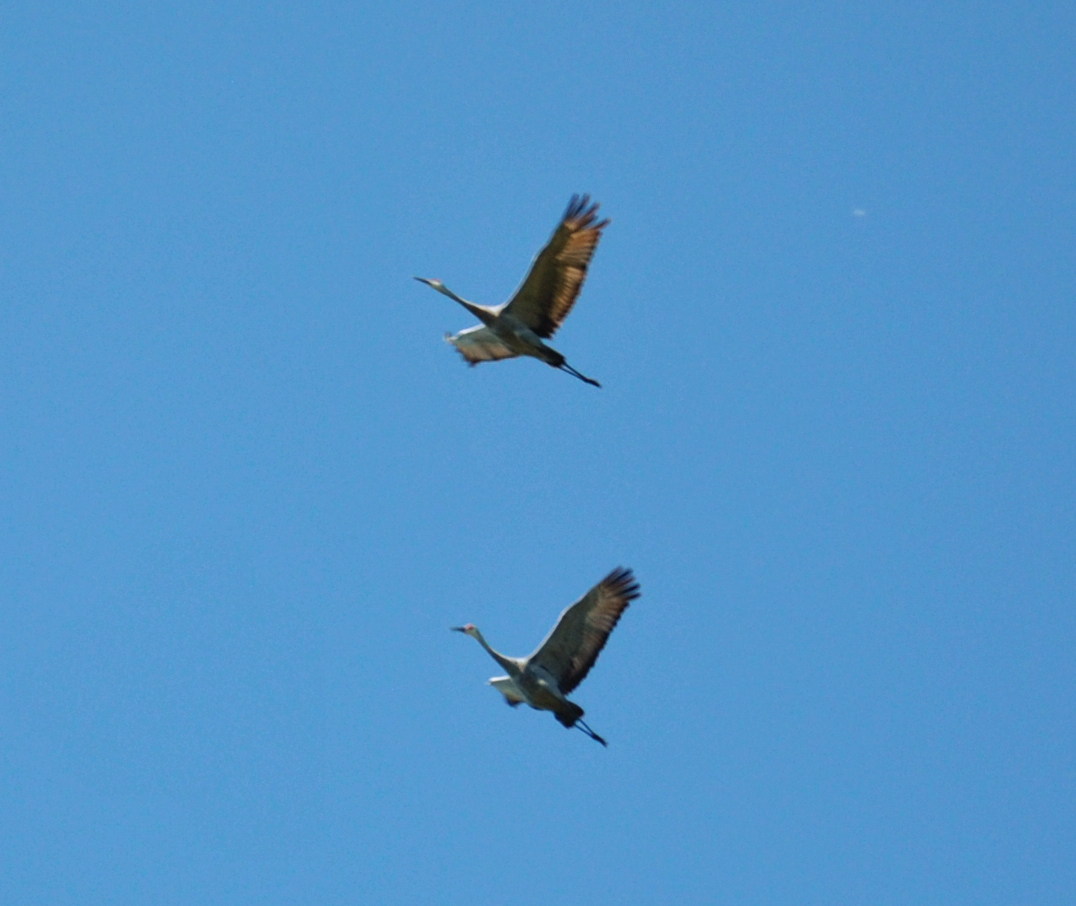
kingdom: Animalia
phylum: Chordata
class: Aves
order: Gruiformes
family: Gruidae
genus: Grus
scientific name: Grus canadensis
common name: Sandhill crane
